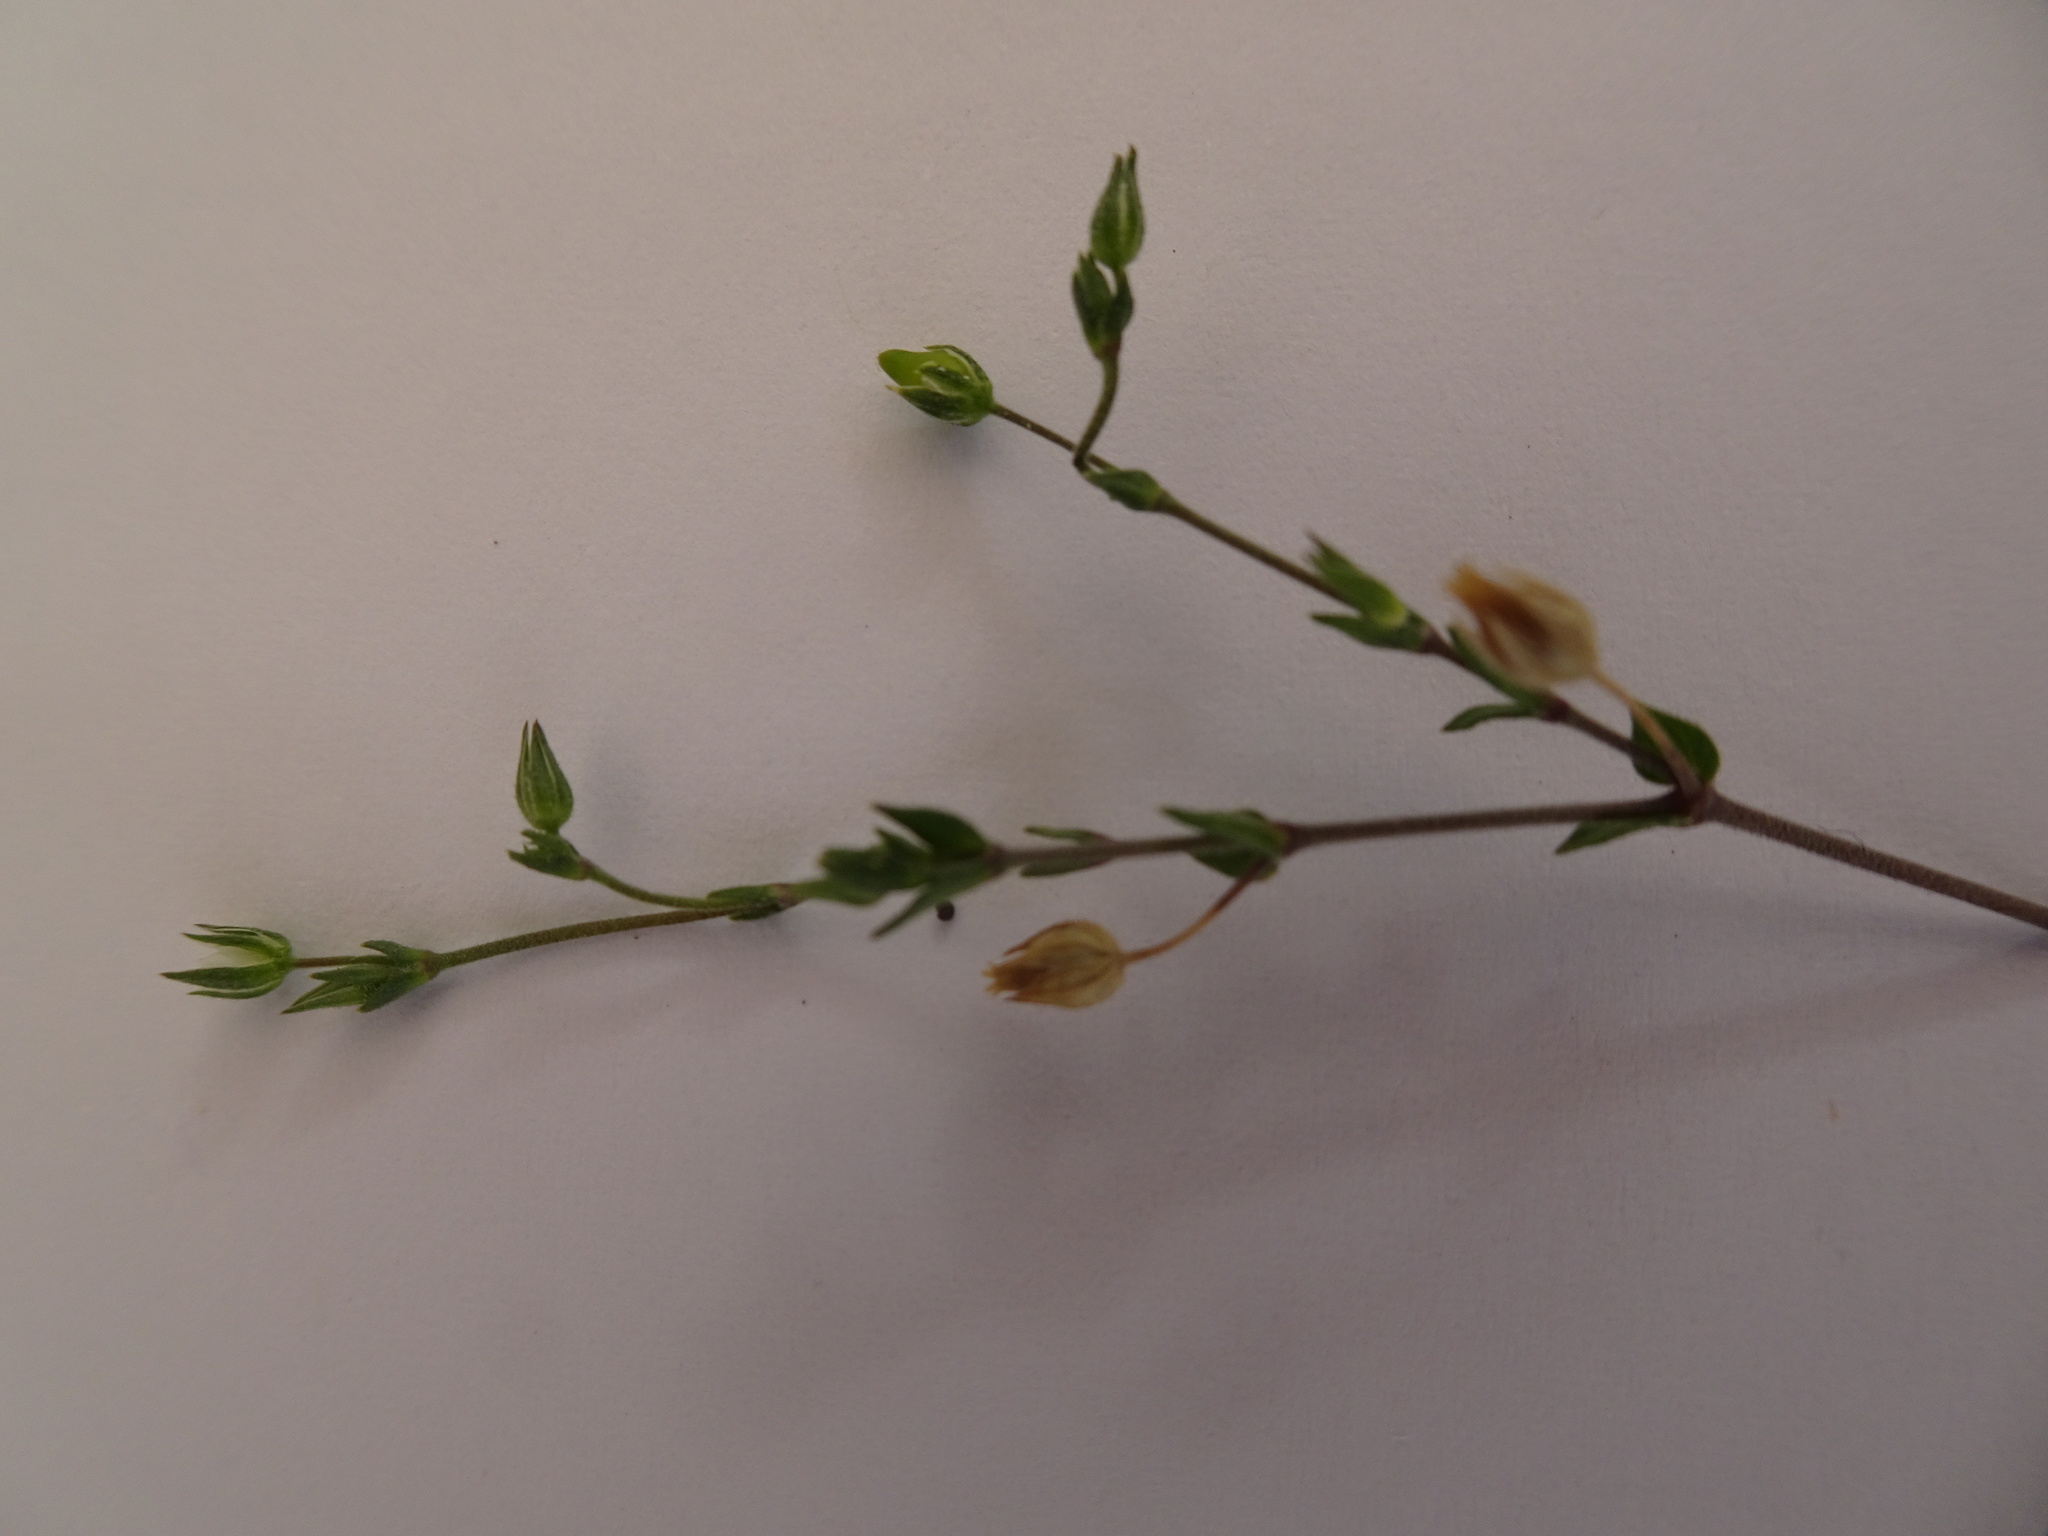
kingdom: Plantae
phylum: Tracheophyta
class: Magnoliopsida
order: Caryophyllales
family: Caryophyllaceae
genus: Arenaria
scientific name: Arenaria serpyllifolia
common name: Thyme-leaved sandwort
